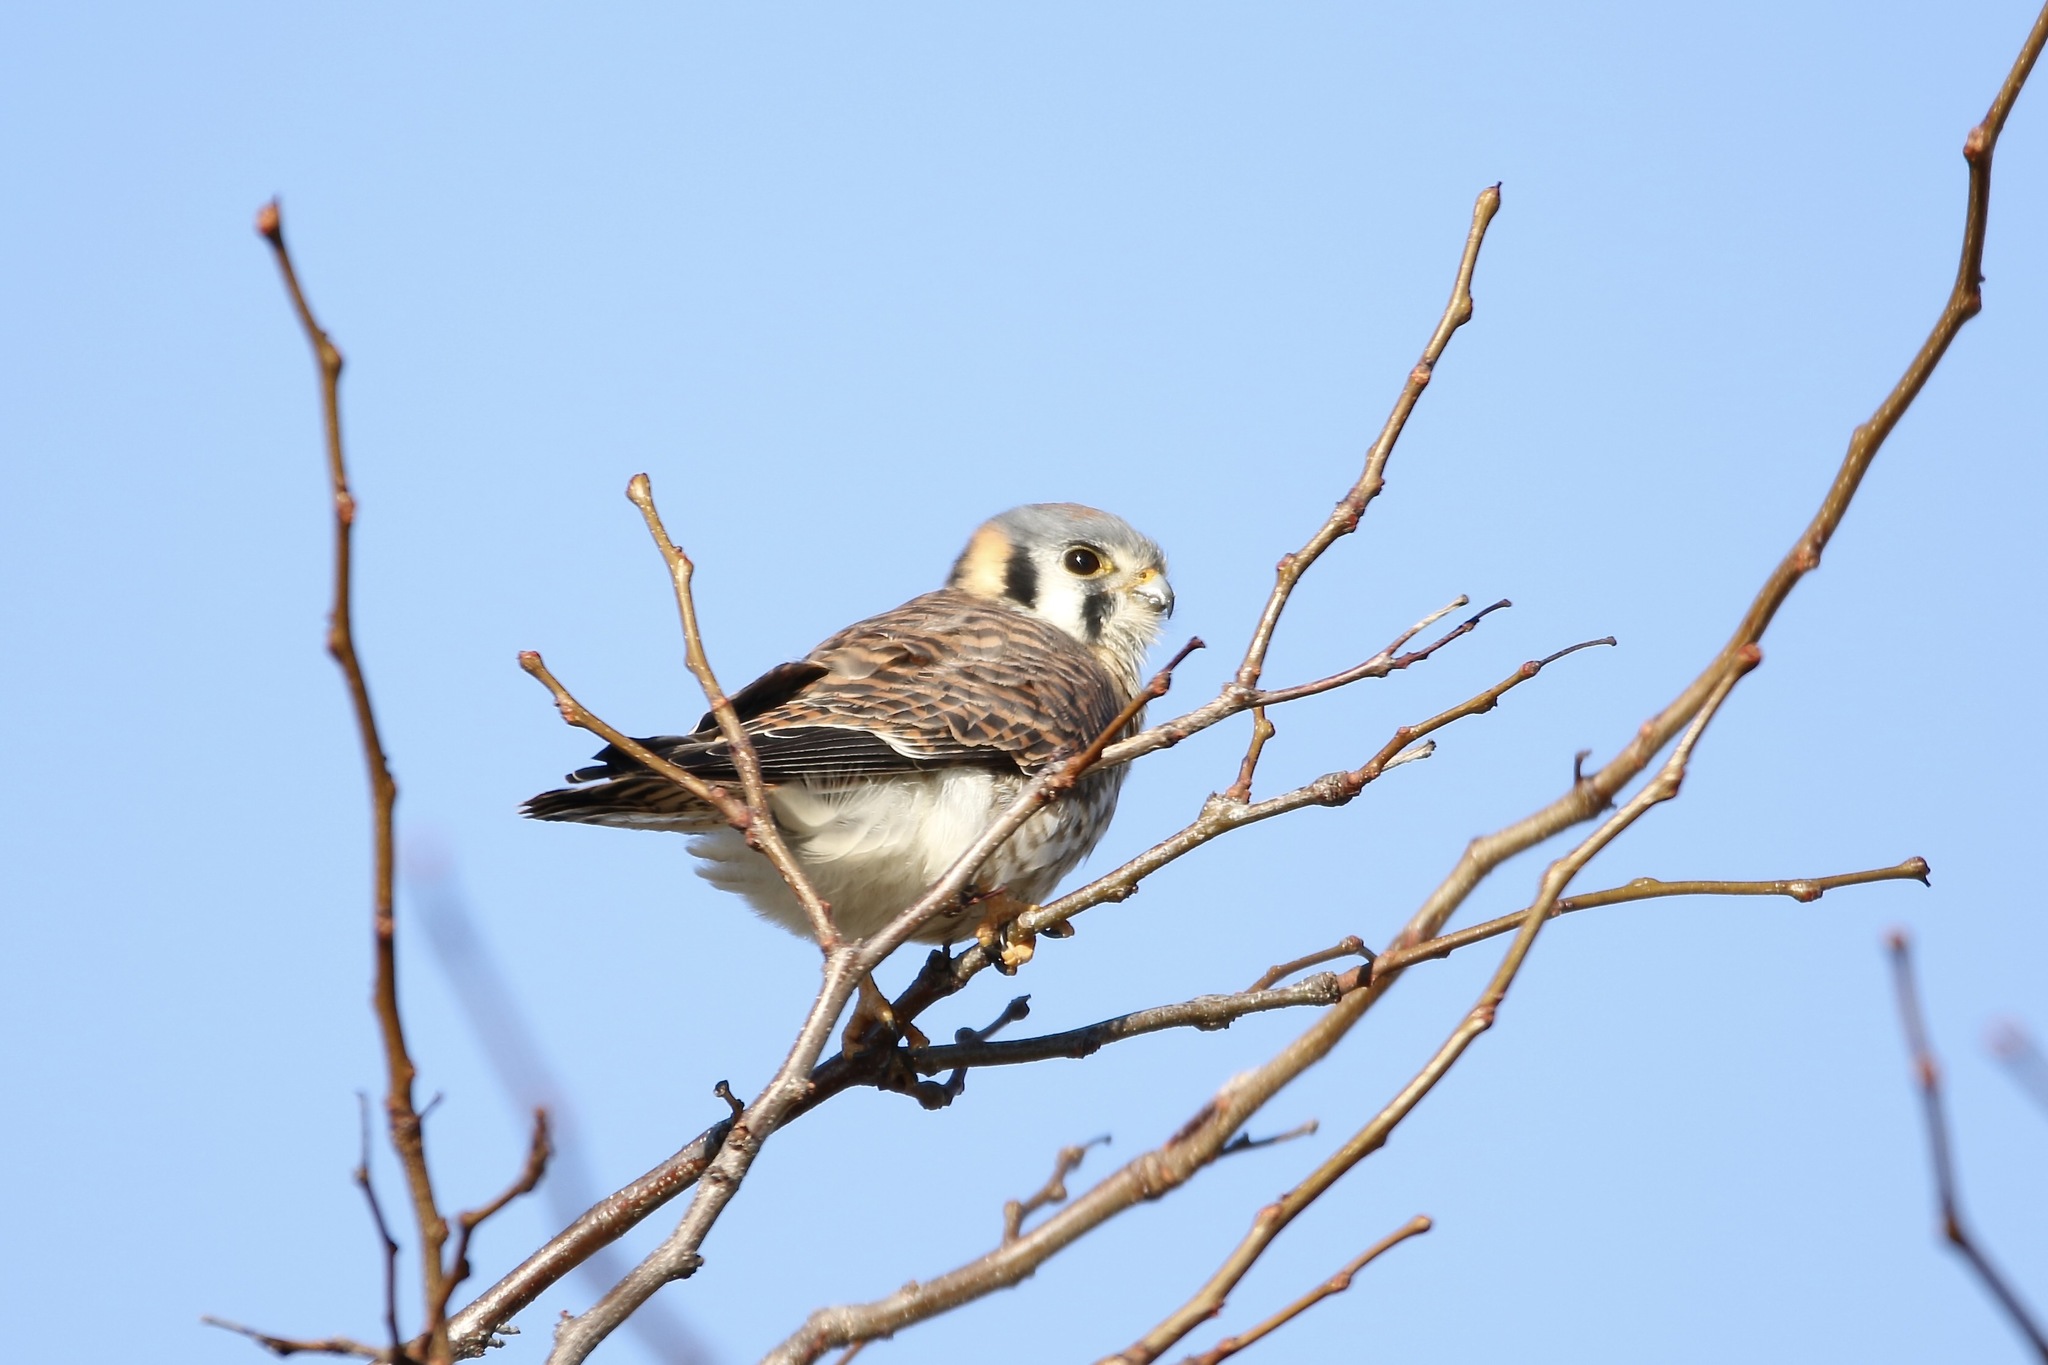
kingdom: Animalia
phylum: Chordata
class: Aves
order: Falconiformes
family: Falconidae
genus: Falco
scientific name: Falco sparverius
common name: American kestrel
